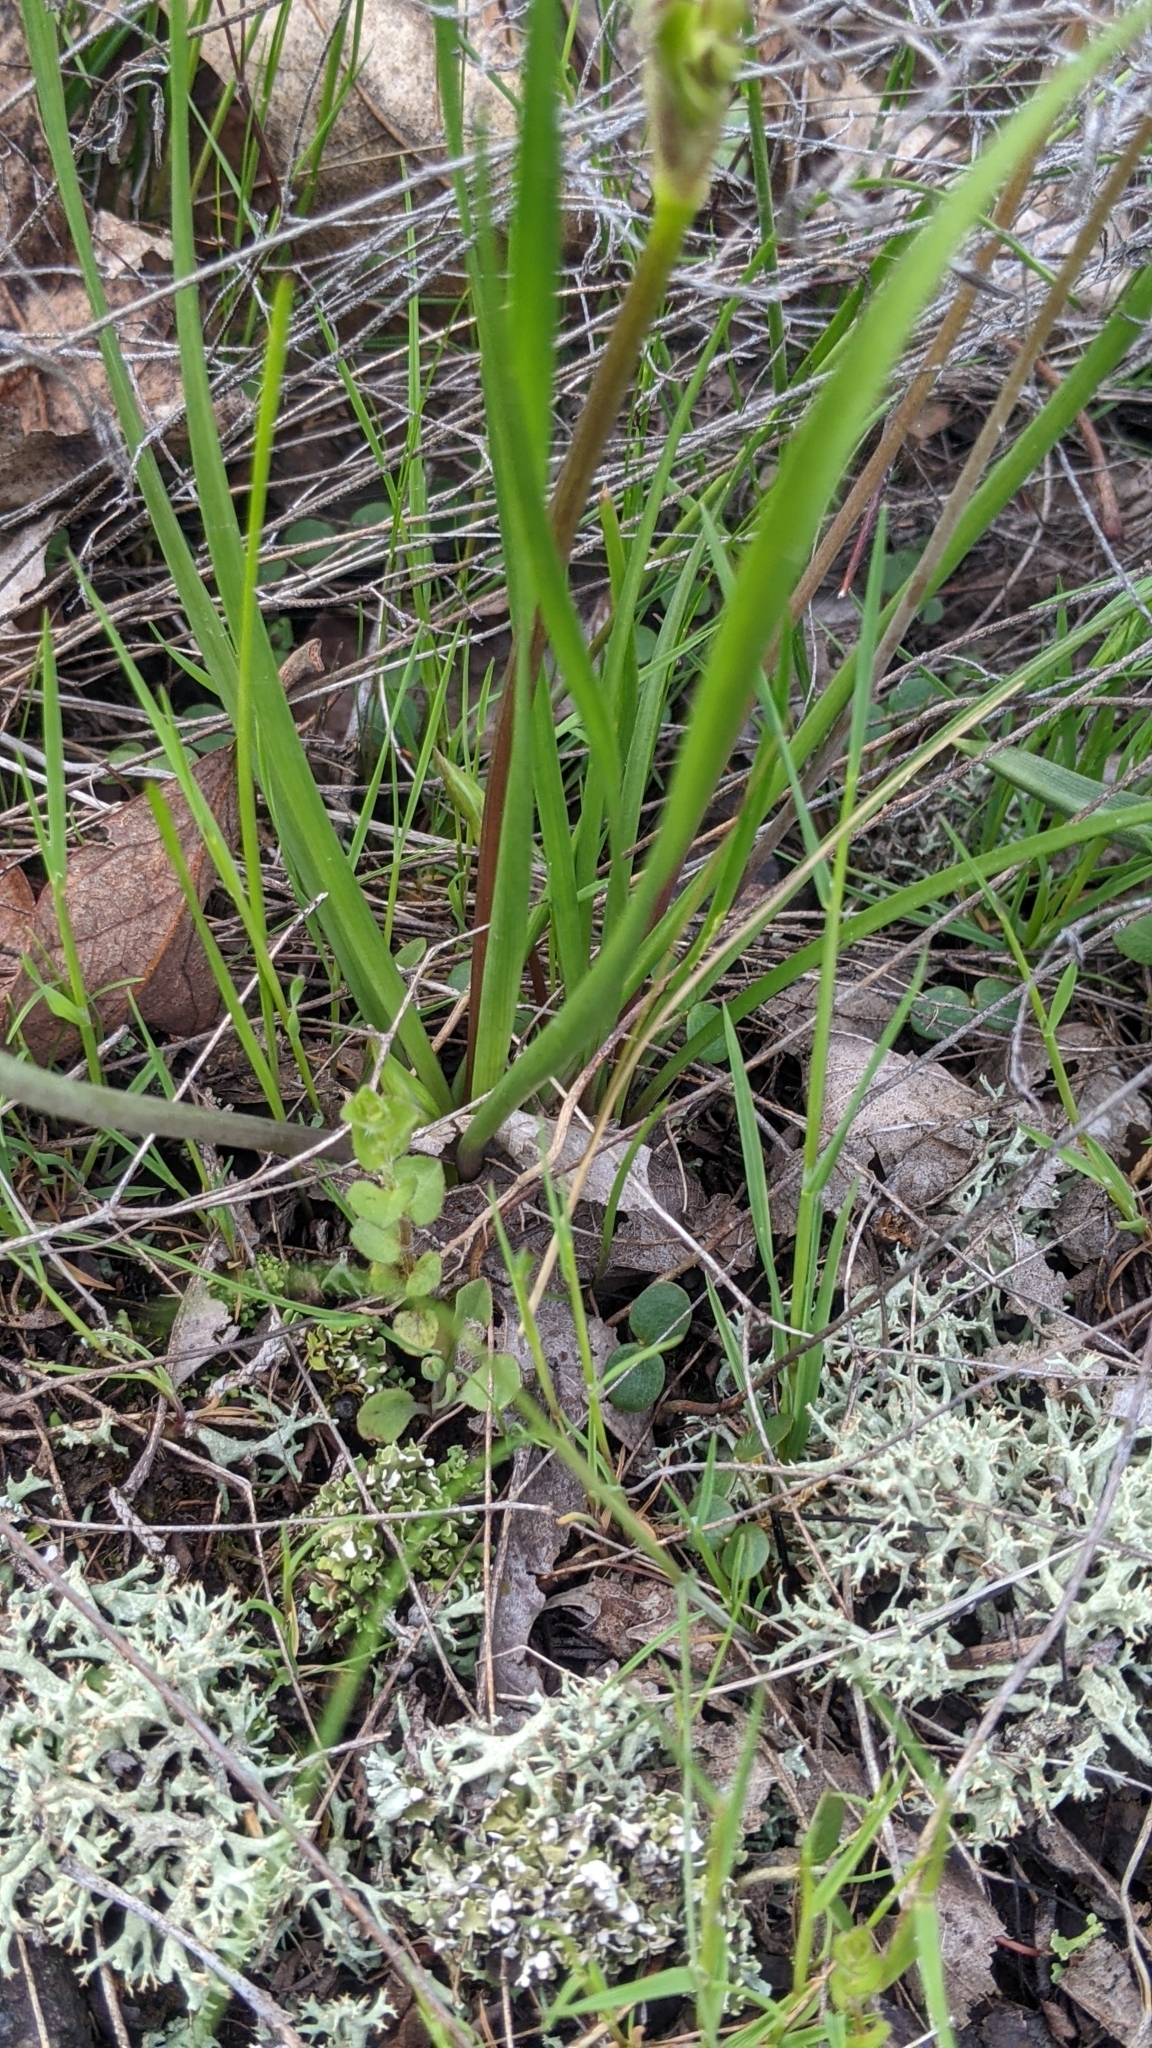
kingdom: Plantae
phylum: Tracheophyta
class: Liliopsida
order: Asparagales
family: Amaryllidaceae
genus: Nothoscordum
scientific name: Nothoscordum bivalve
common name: Crow-poison
